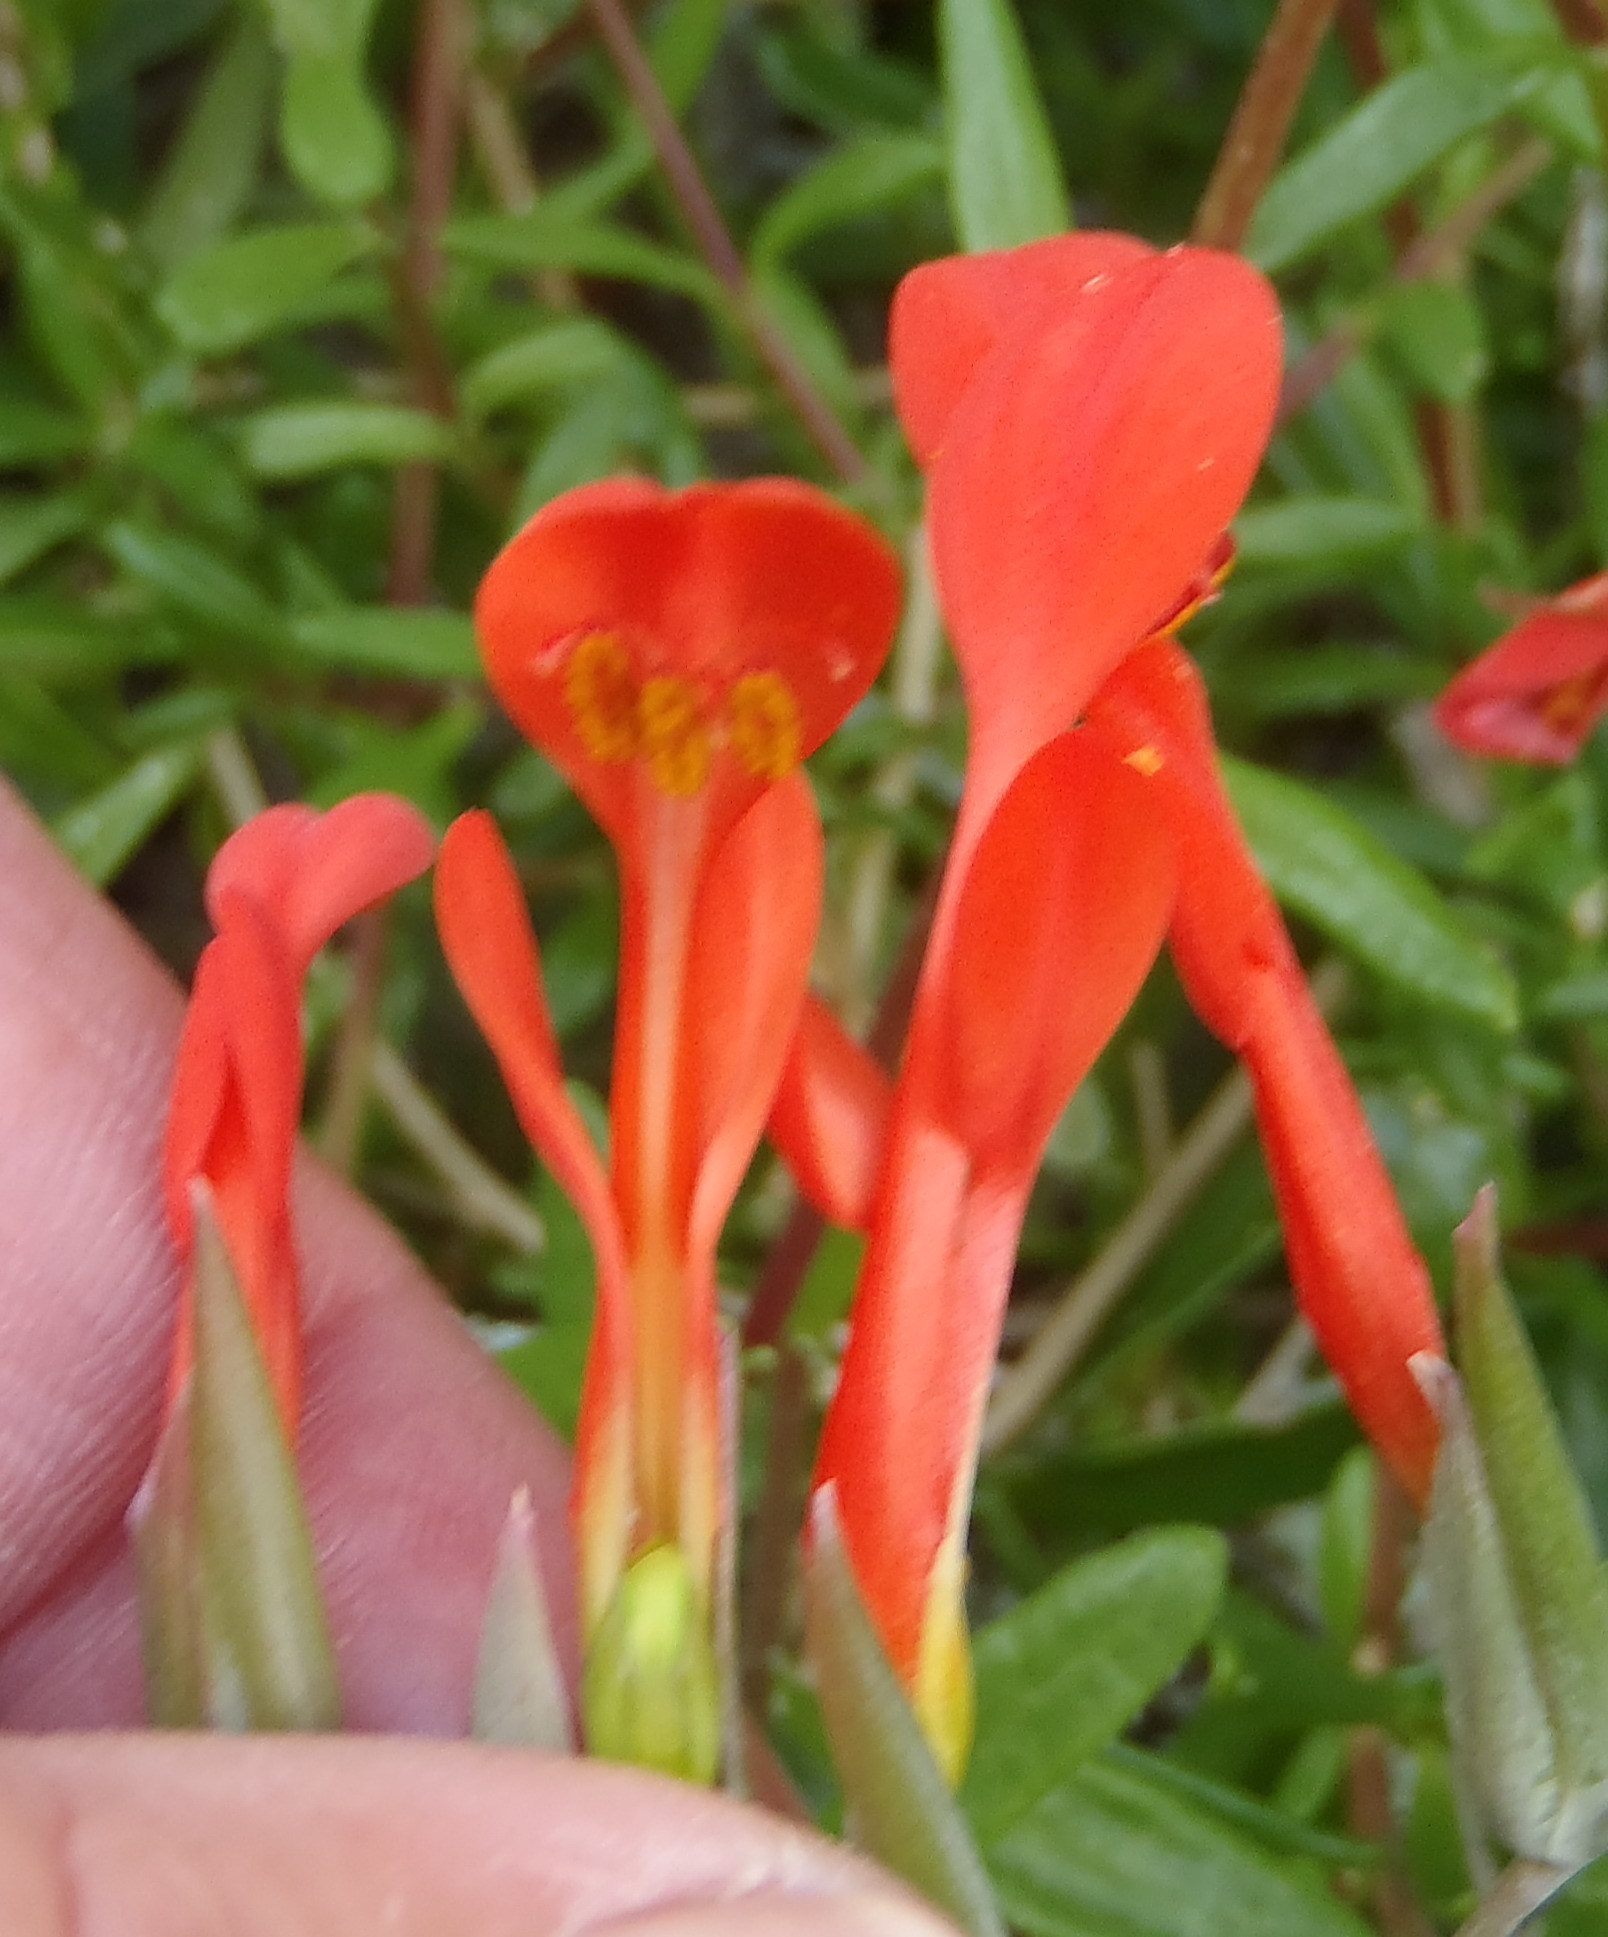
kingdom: Plantae
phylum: Tracheophyta
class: Liliopsida
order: Asparagales
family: Iridaceae
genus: Gladiolus
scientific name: Gladiolus cunonius
